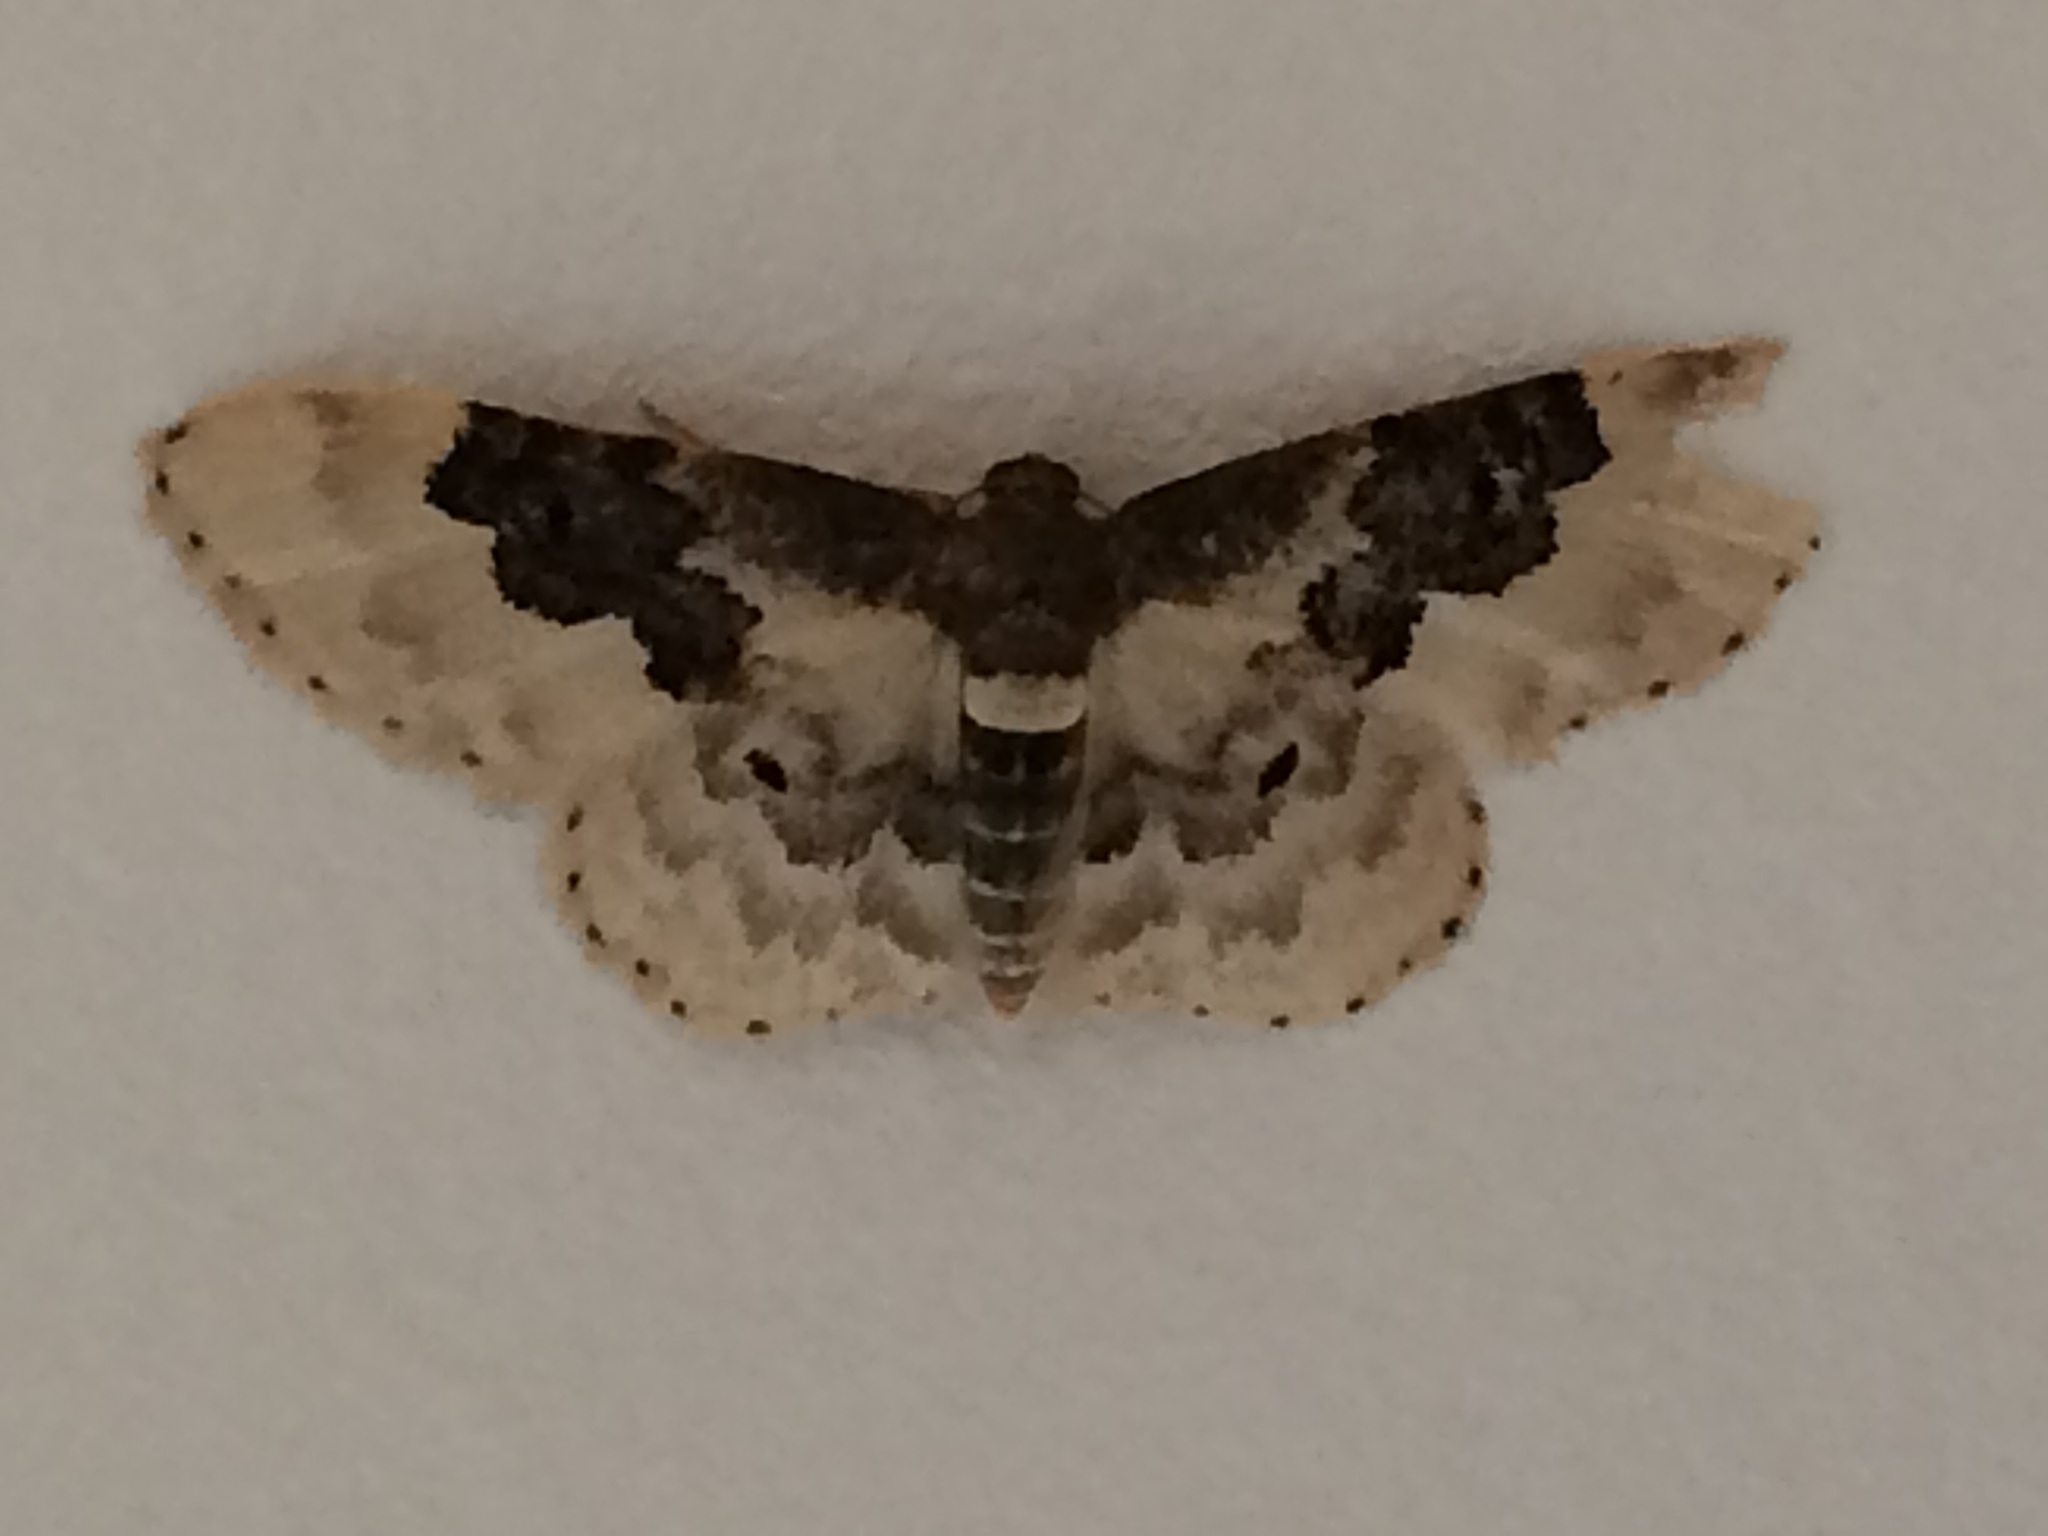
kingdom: Animalia
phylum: Arthropoda
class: Insecta
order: Lepidoptera
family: Geometridae
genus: Idaea
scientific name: Idaea rusticata
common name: Least carpet
